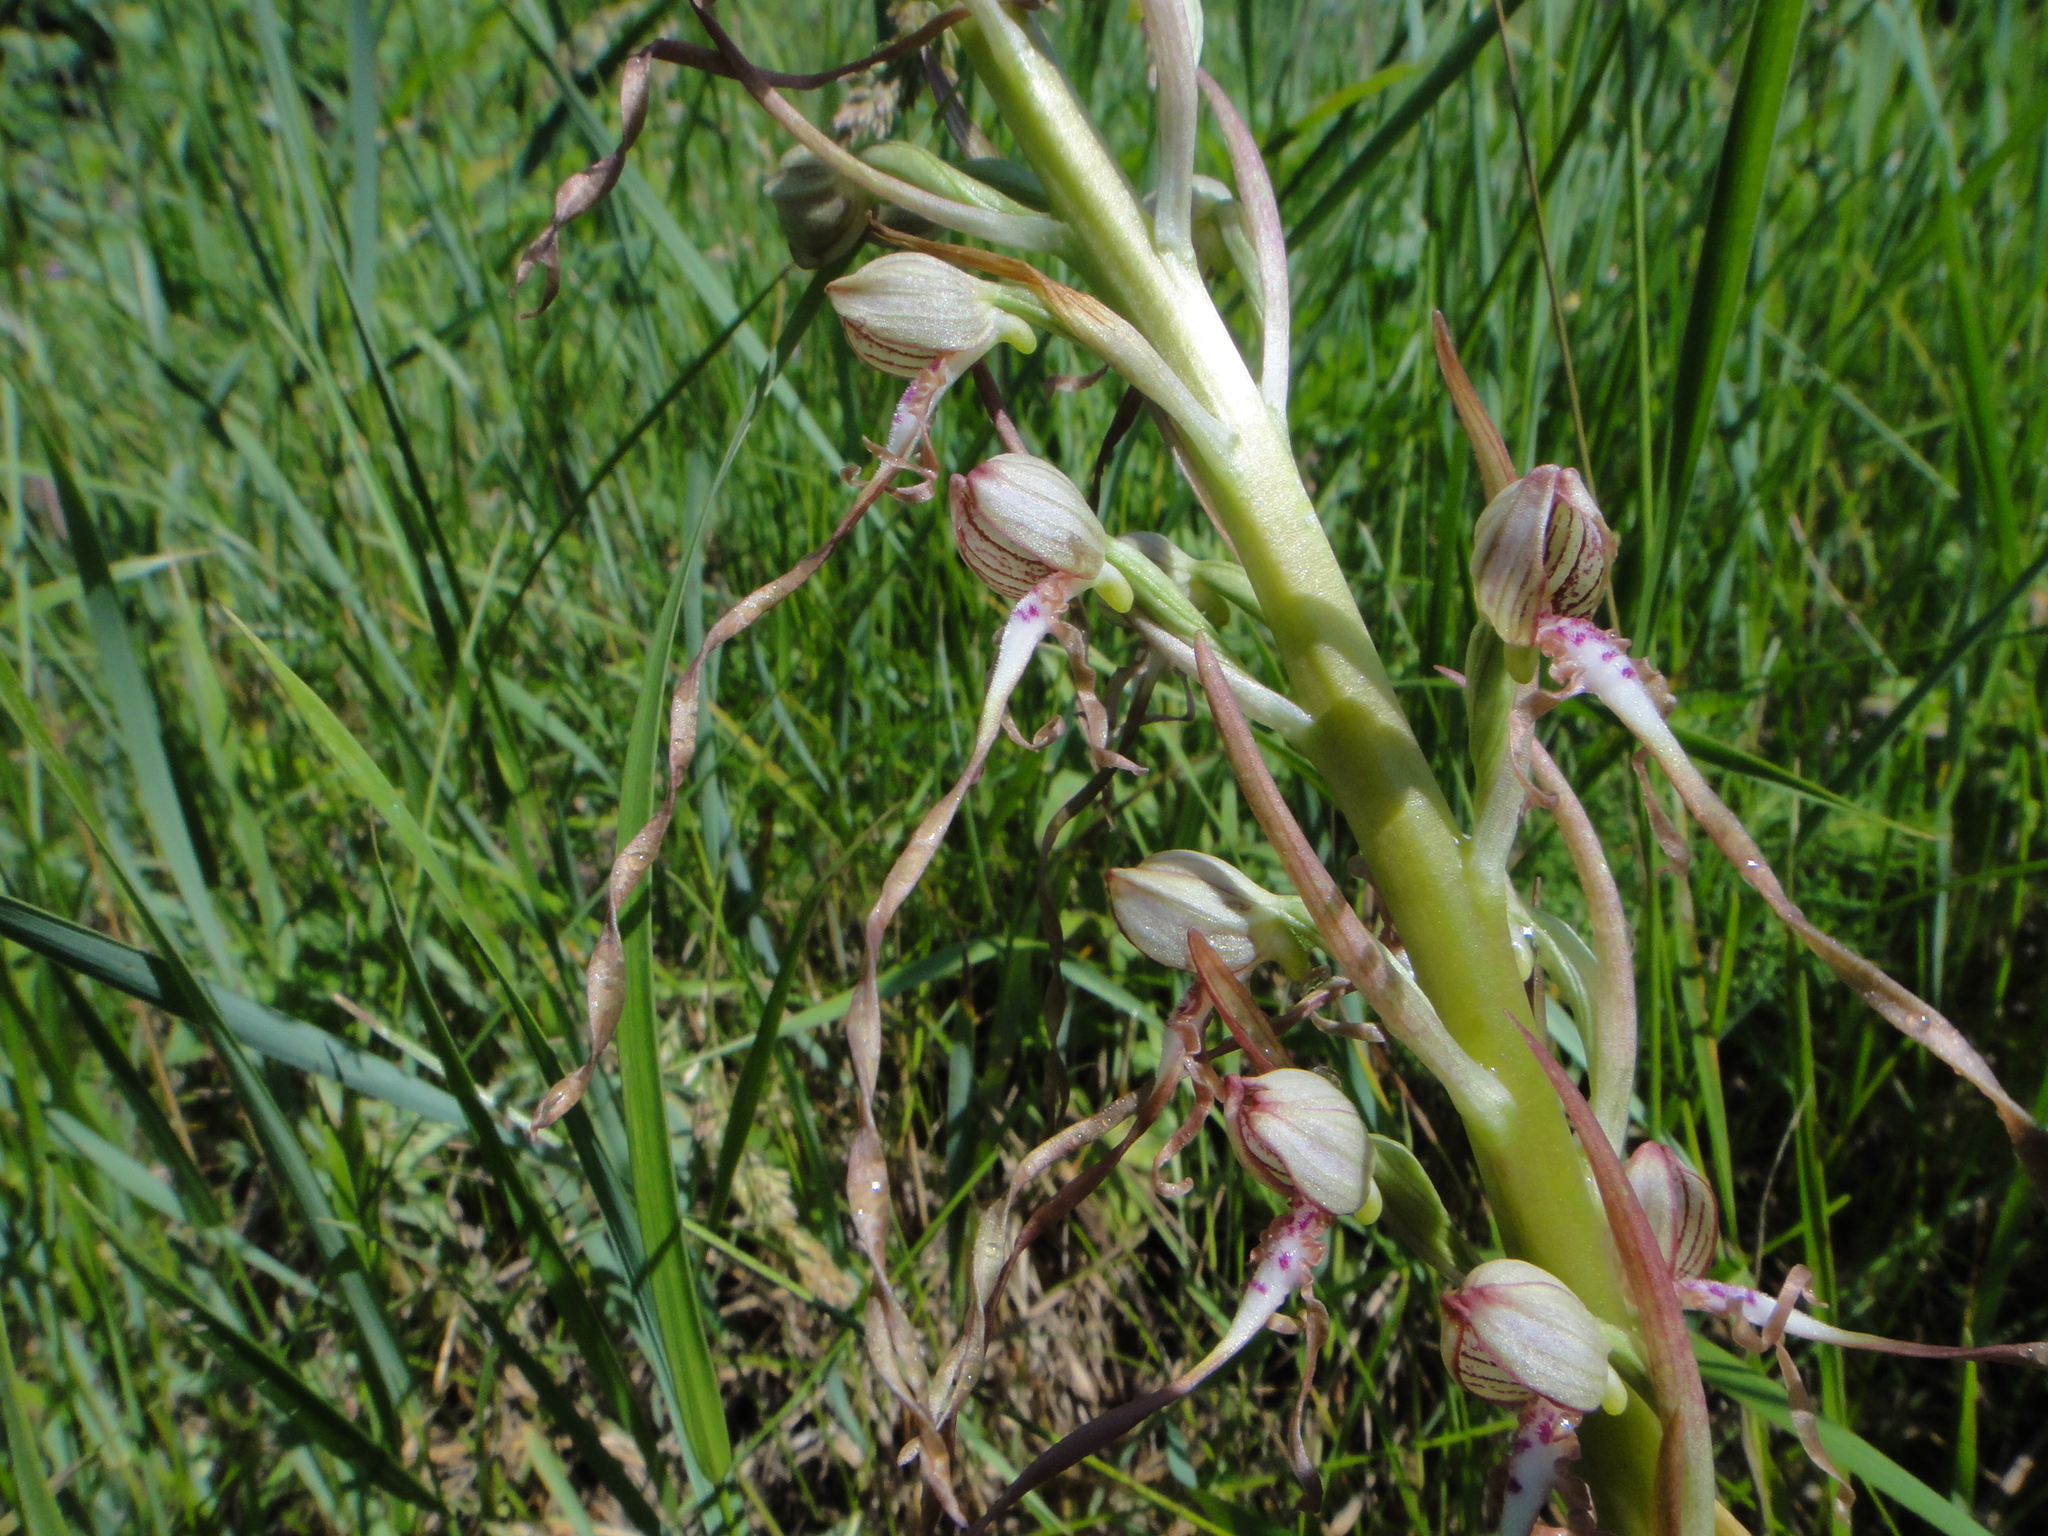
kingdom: Plantae
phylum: Tracheophyta
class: Liliopsida
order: Asparagales
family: Orchidaceae
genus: Himantoglossum
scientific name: Himantoglossum adriaticum
